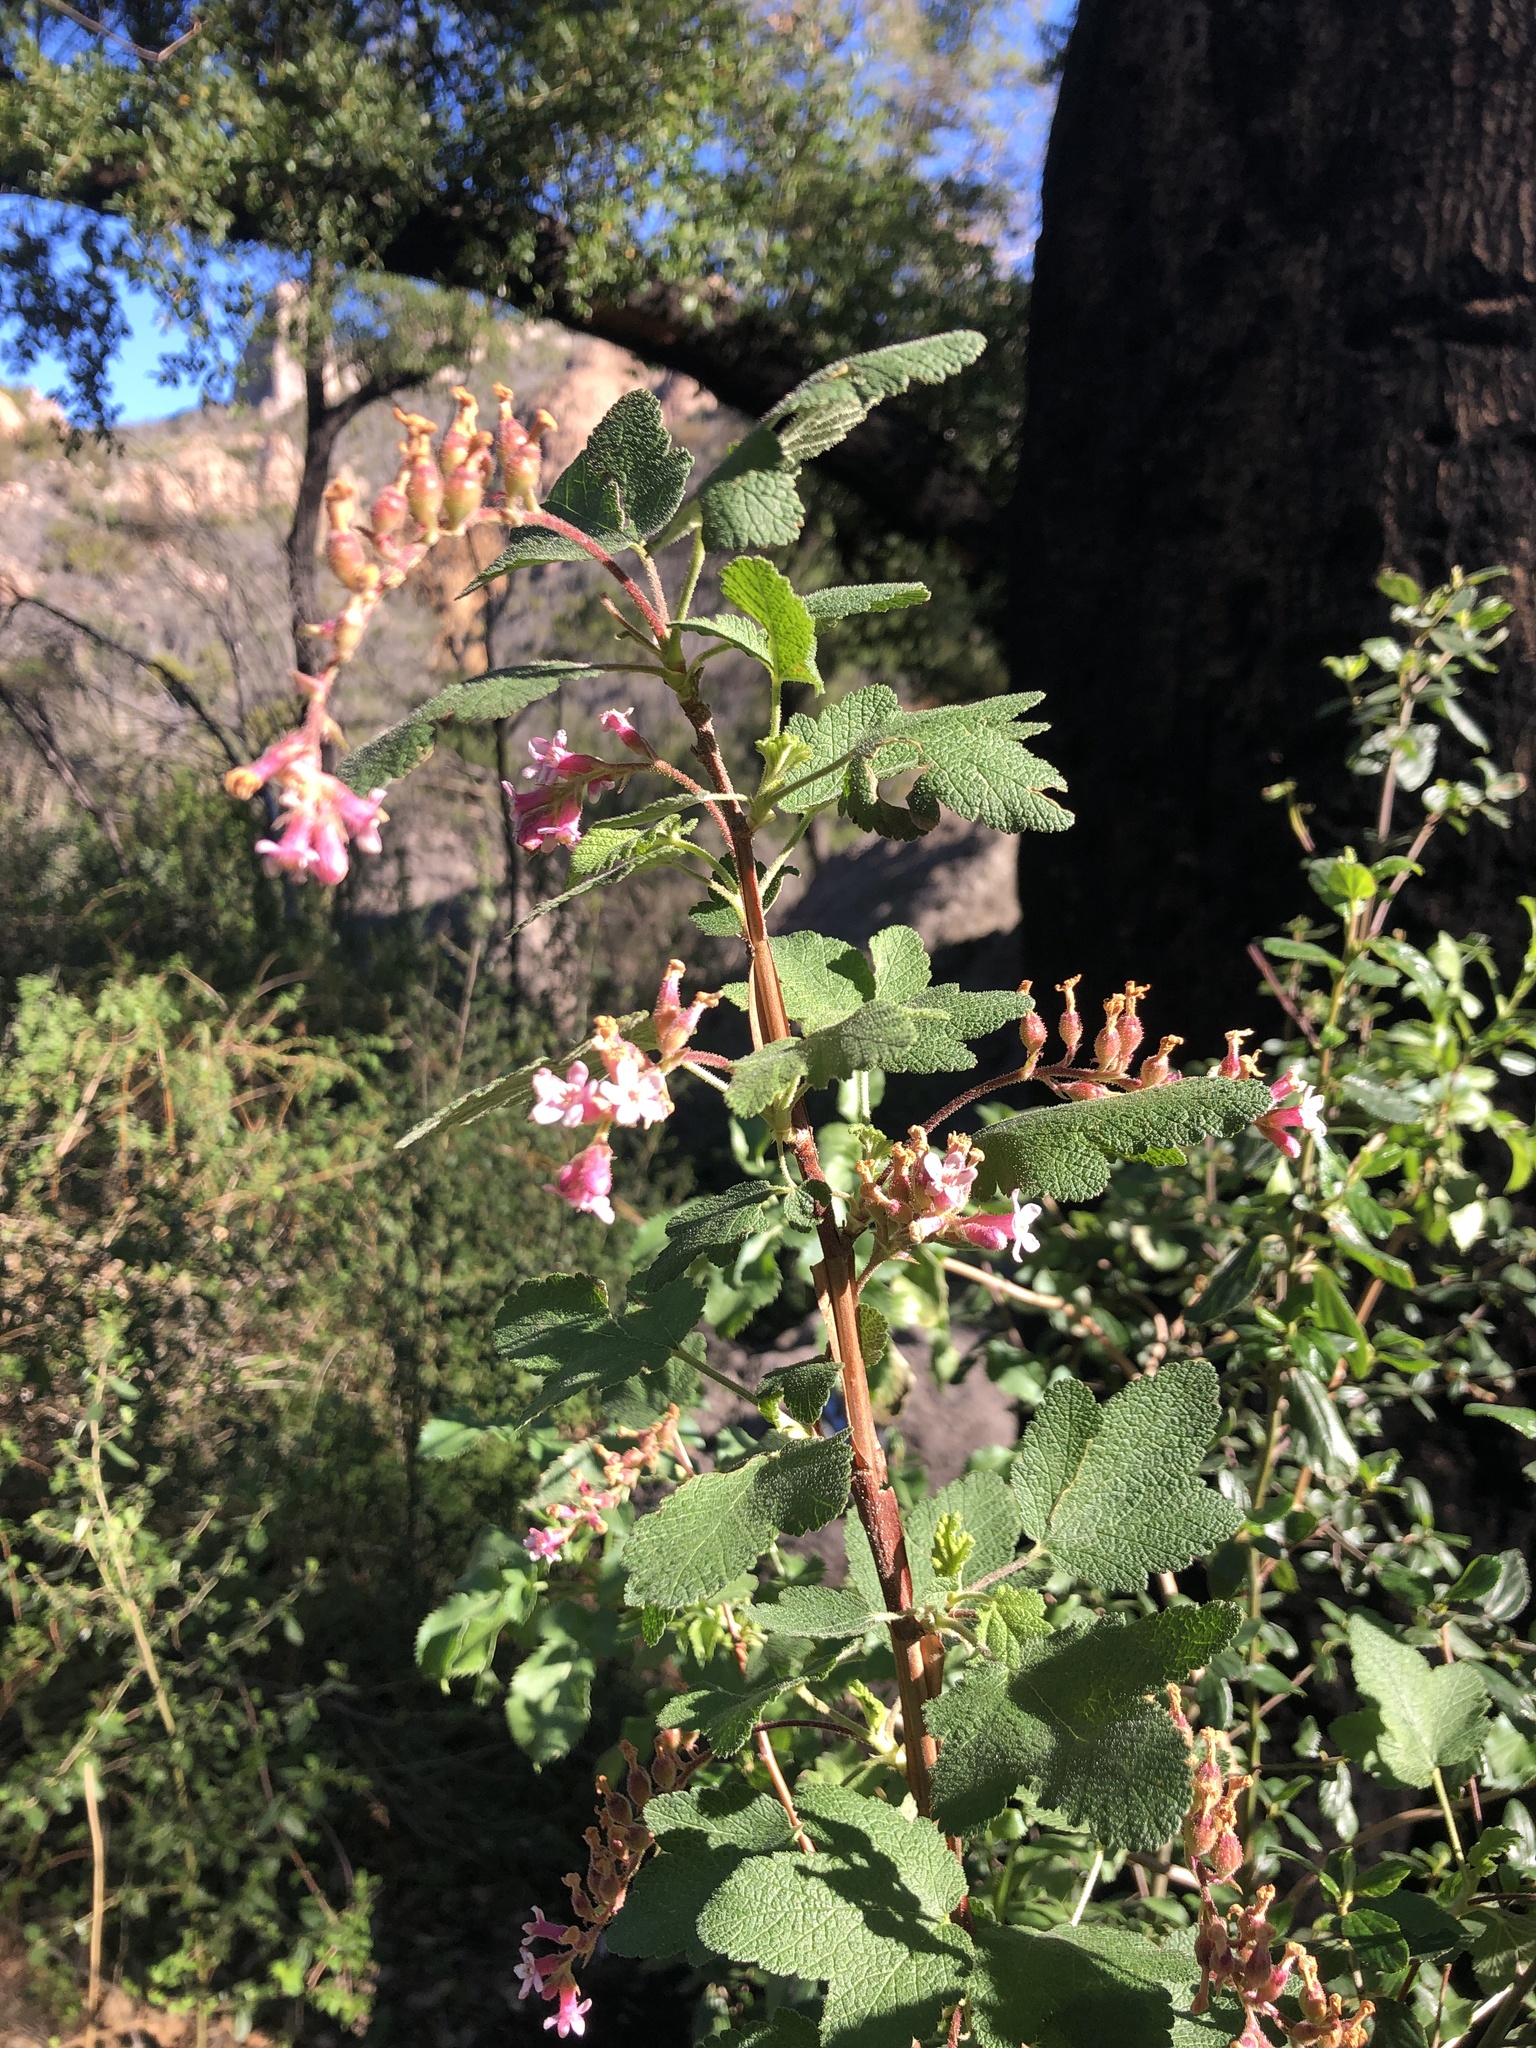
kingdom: Plantae
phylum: Tracheophyta
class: Magnoliopsida
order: Saxifragales
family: Grossulariaceae
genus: Ribes
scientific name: Ribes malvaceum
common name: Chaparral currant
